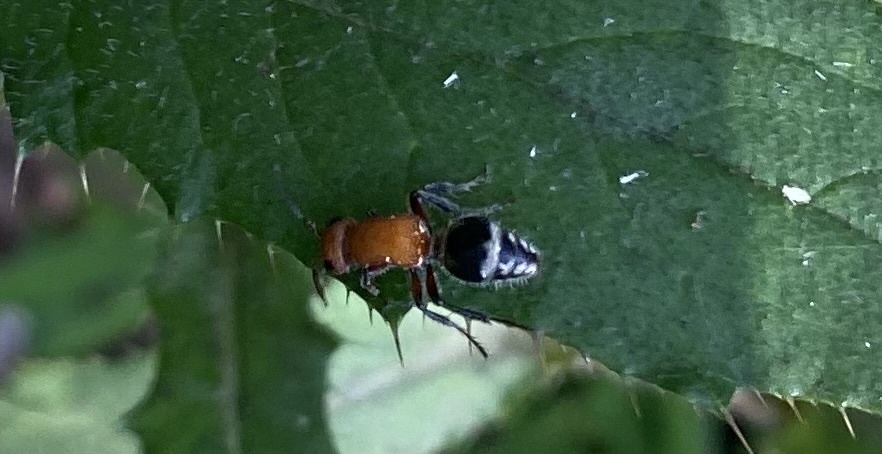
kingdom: Animalia
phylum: Arthropoda
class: Insecta
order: Hymenoptera
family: Mutillidae
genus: Timulla
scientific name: Timulla
